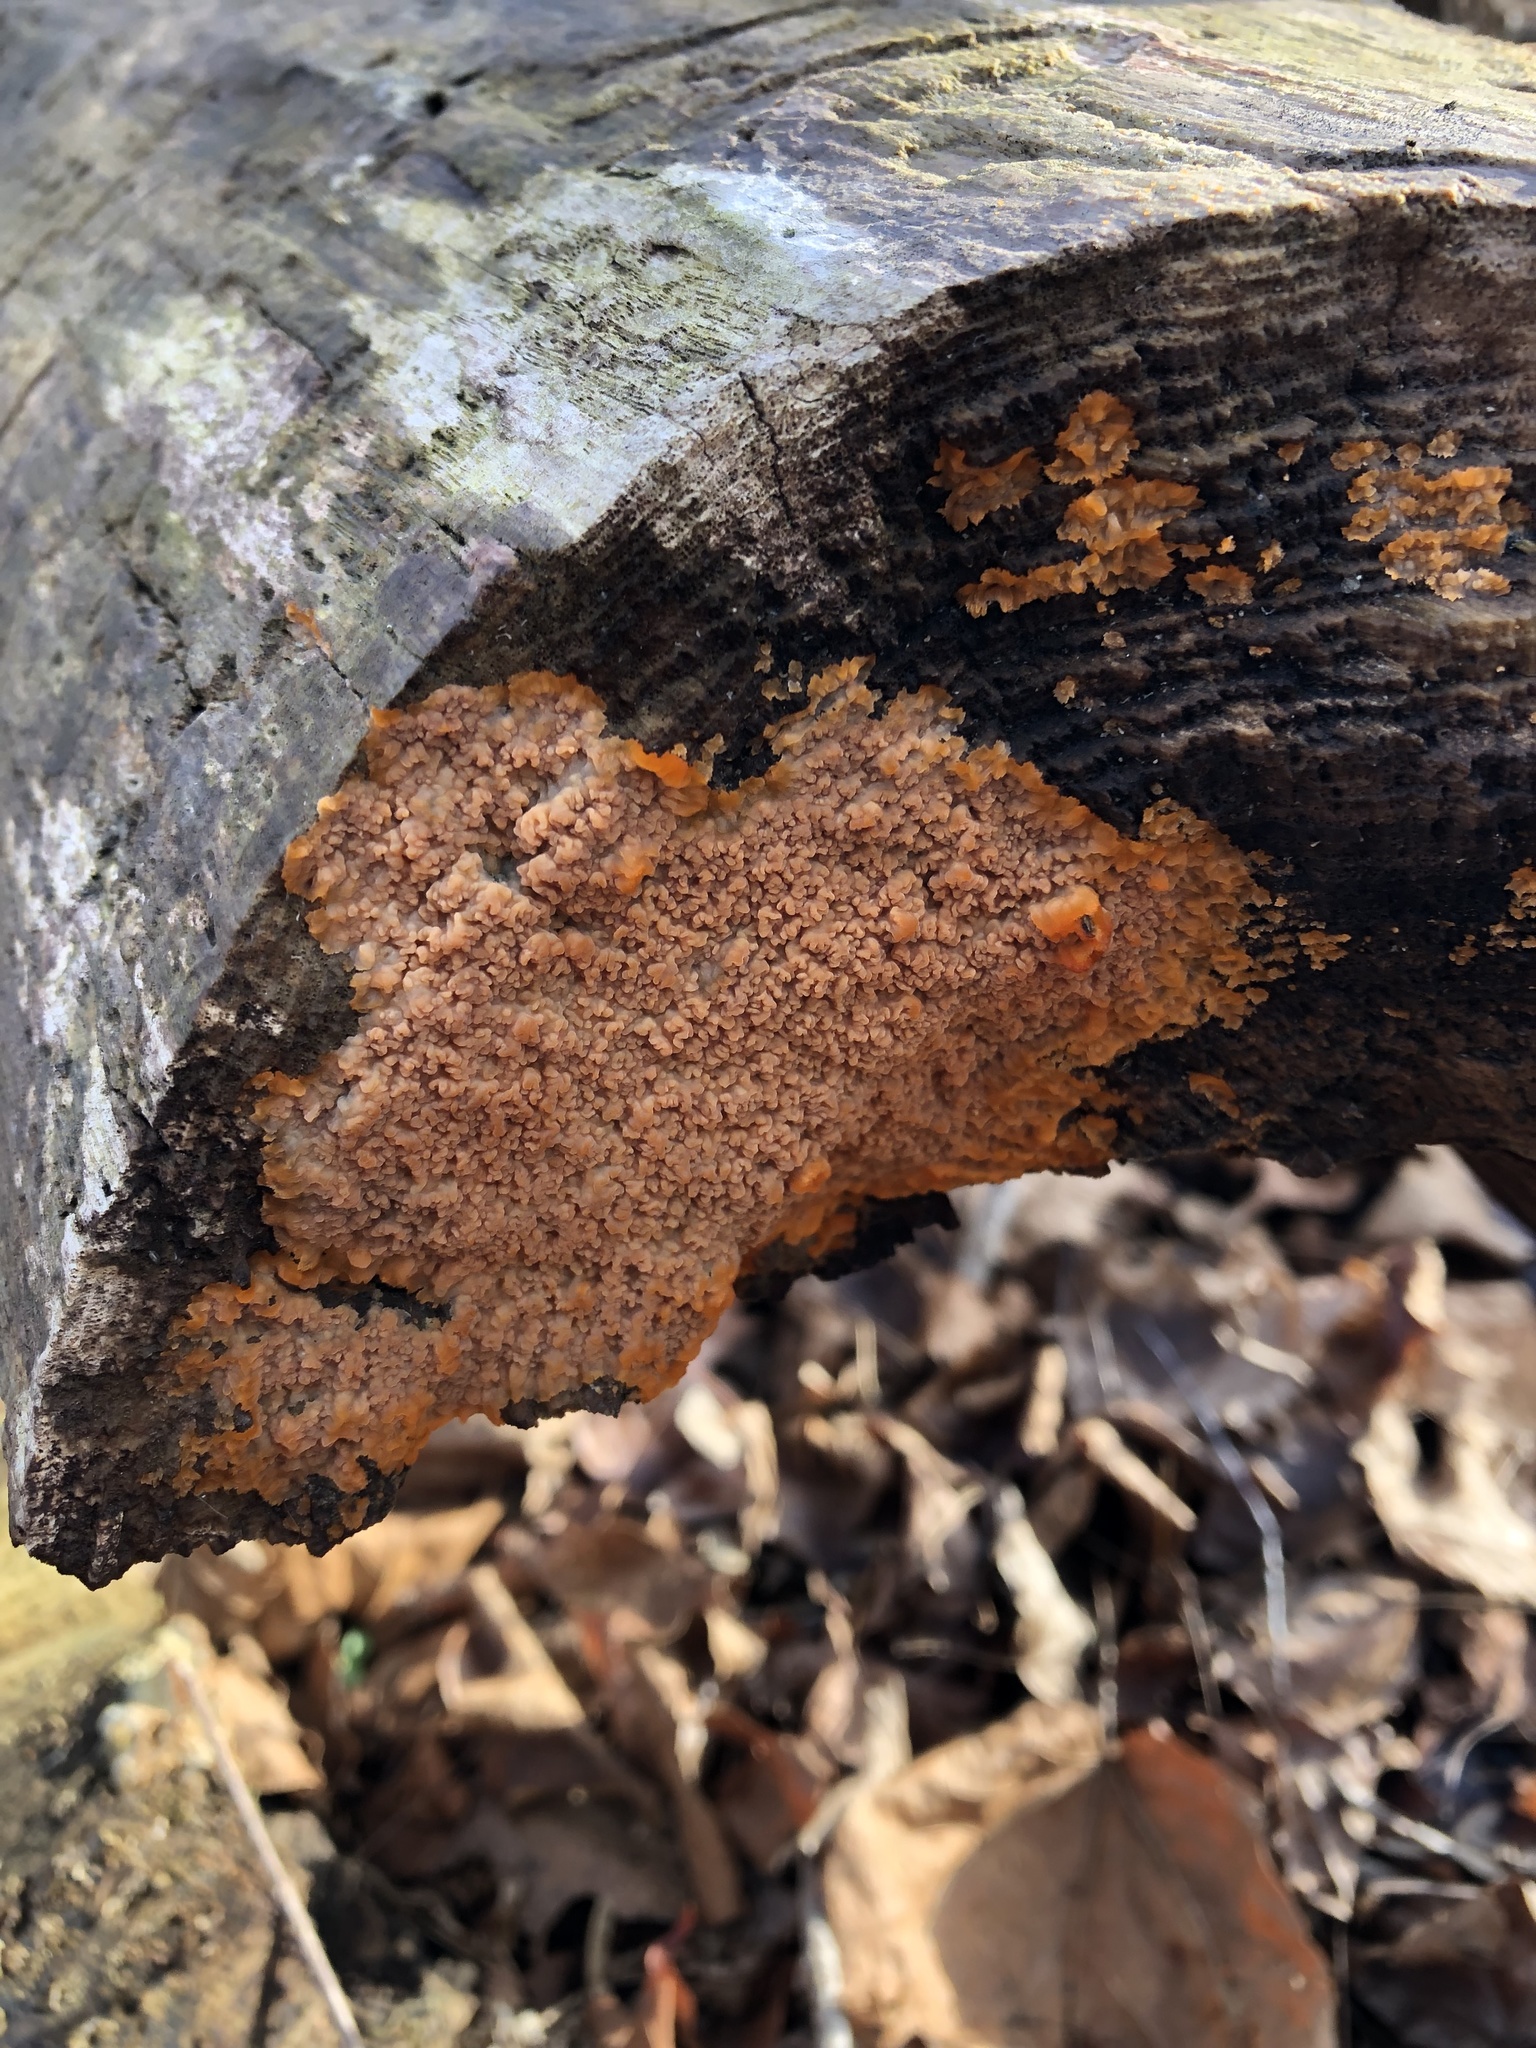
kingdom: Fungi
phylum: Basidiomycota
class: Agaricomycetes
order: Polyporales
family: Meruliaceae
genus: Phlebia
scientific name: Phlebia radiata
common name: Wrinkled crust
